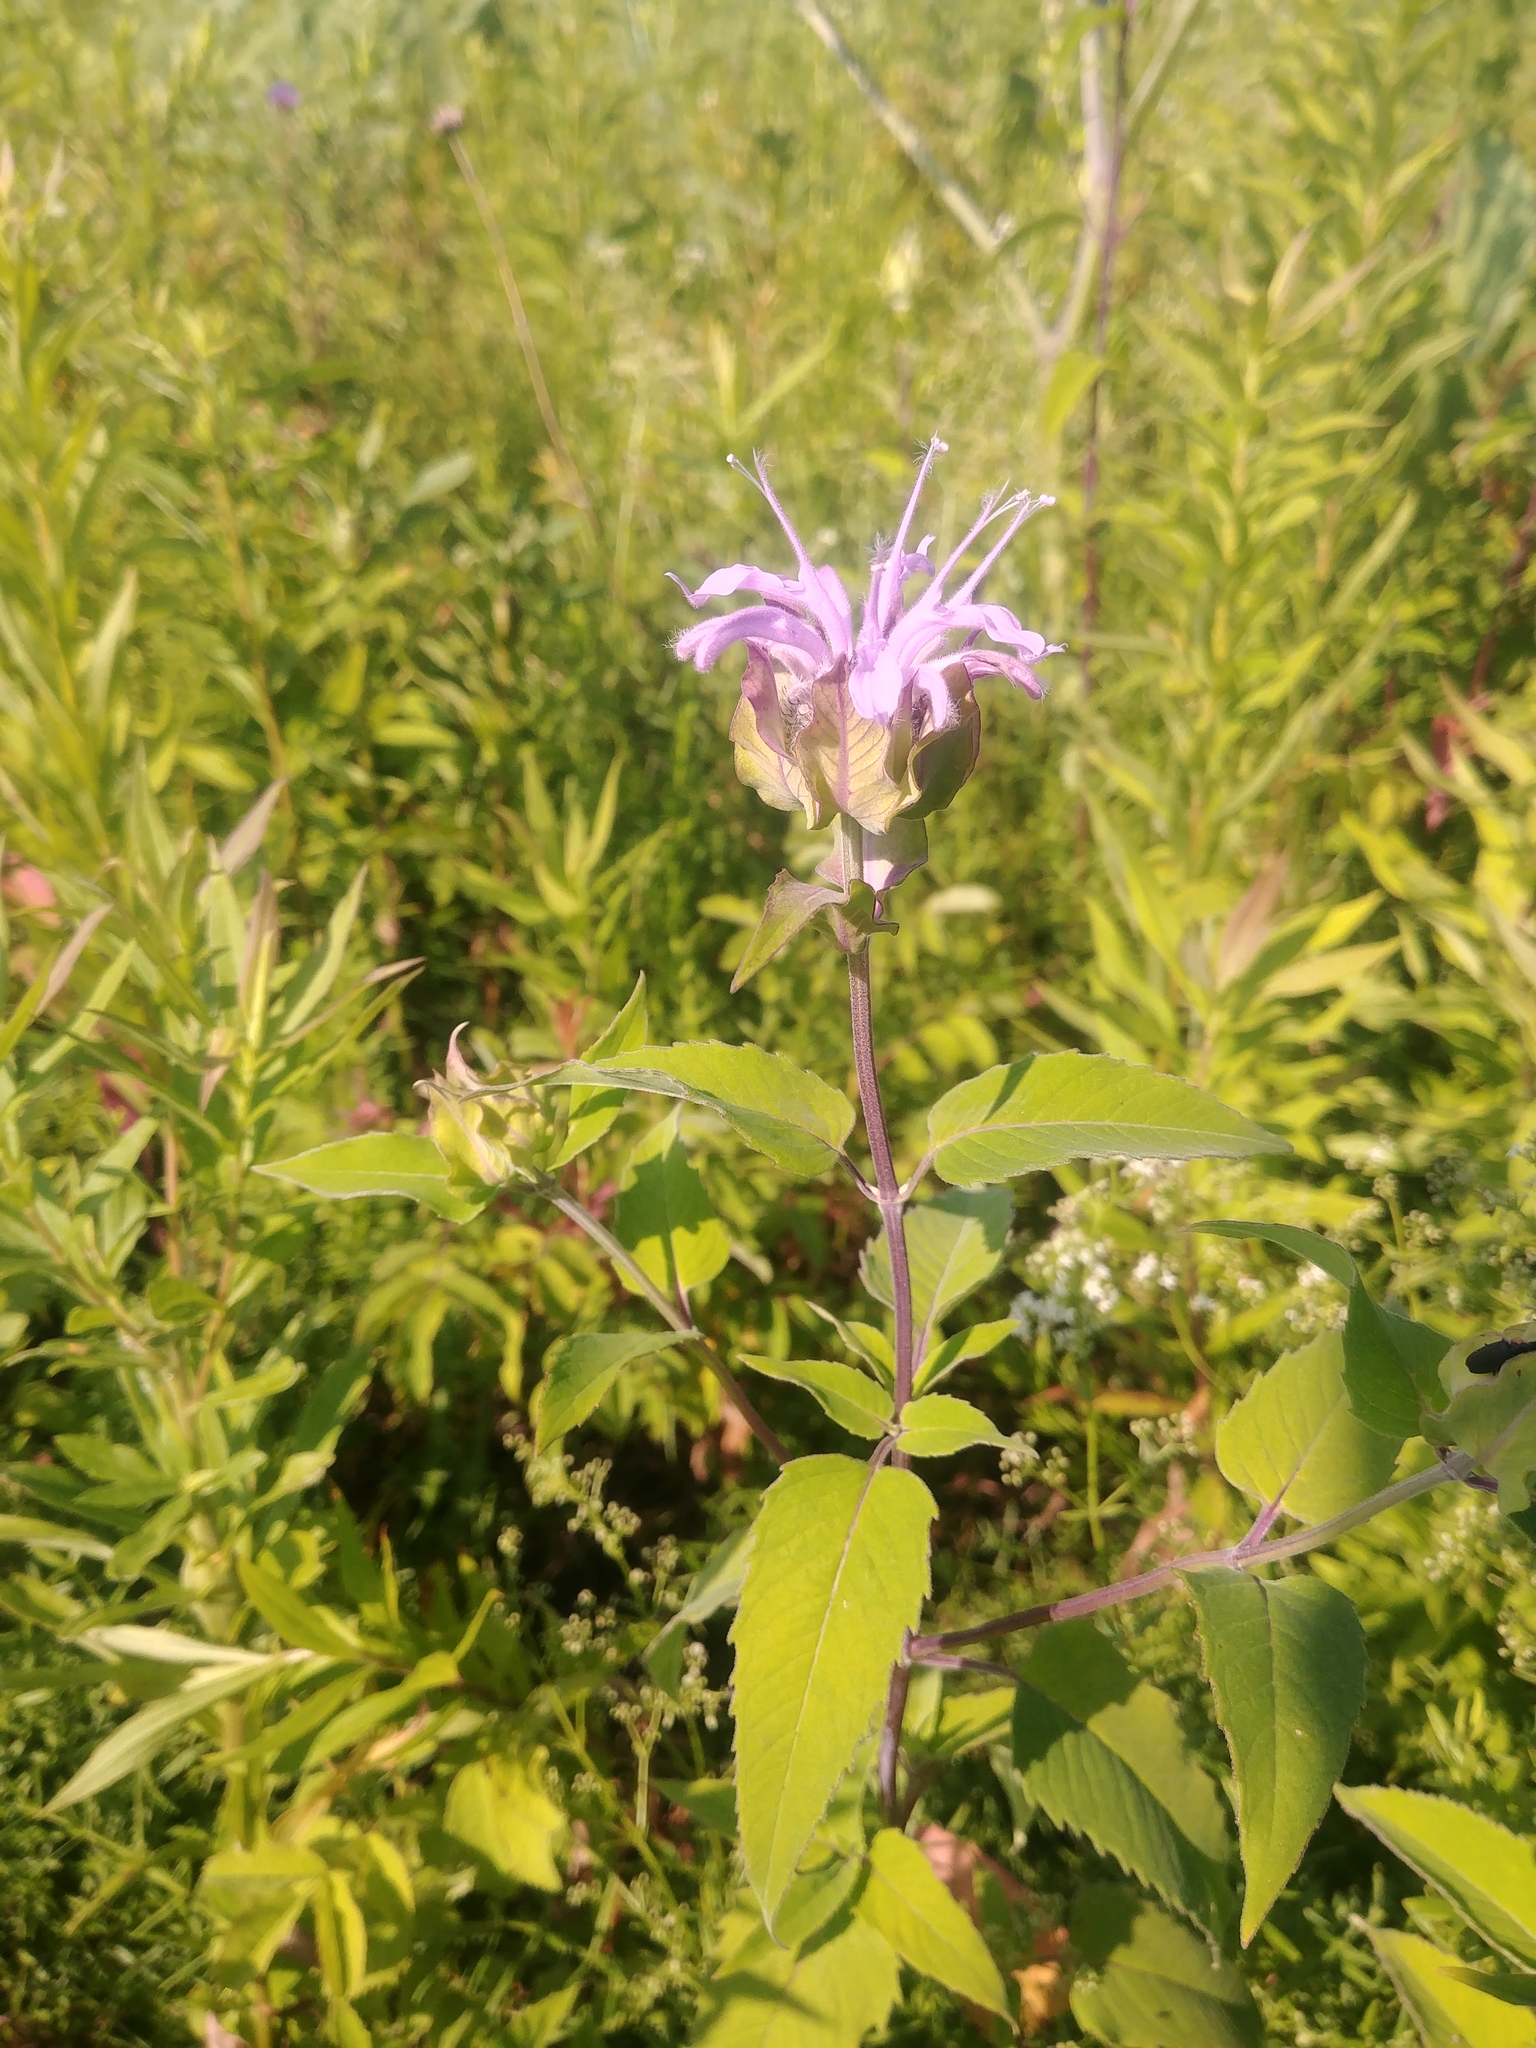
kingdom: Plantae
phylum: Tracheophyta
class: Magnoliopsida
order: Lamiales
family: Lamiaceae
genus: Monarda
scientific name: Monarda fistulosa
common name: Purple beebalm
